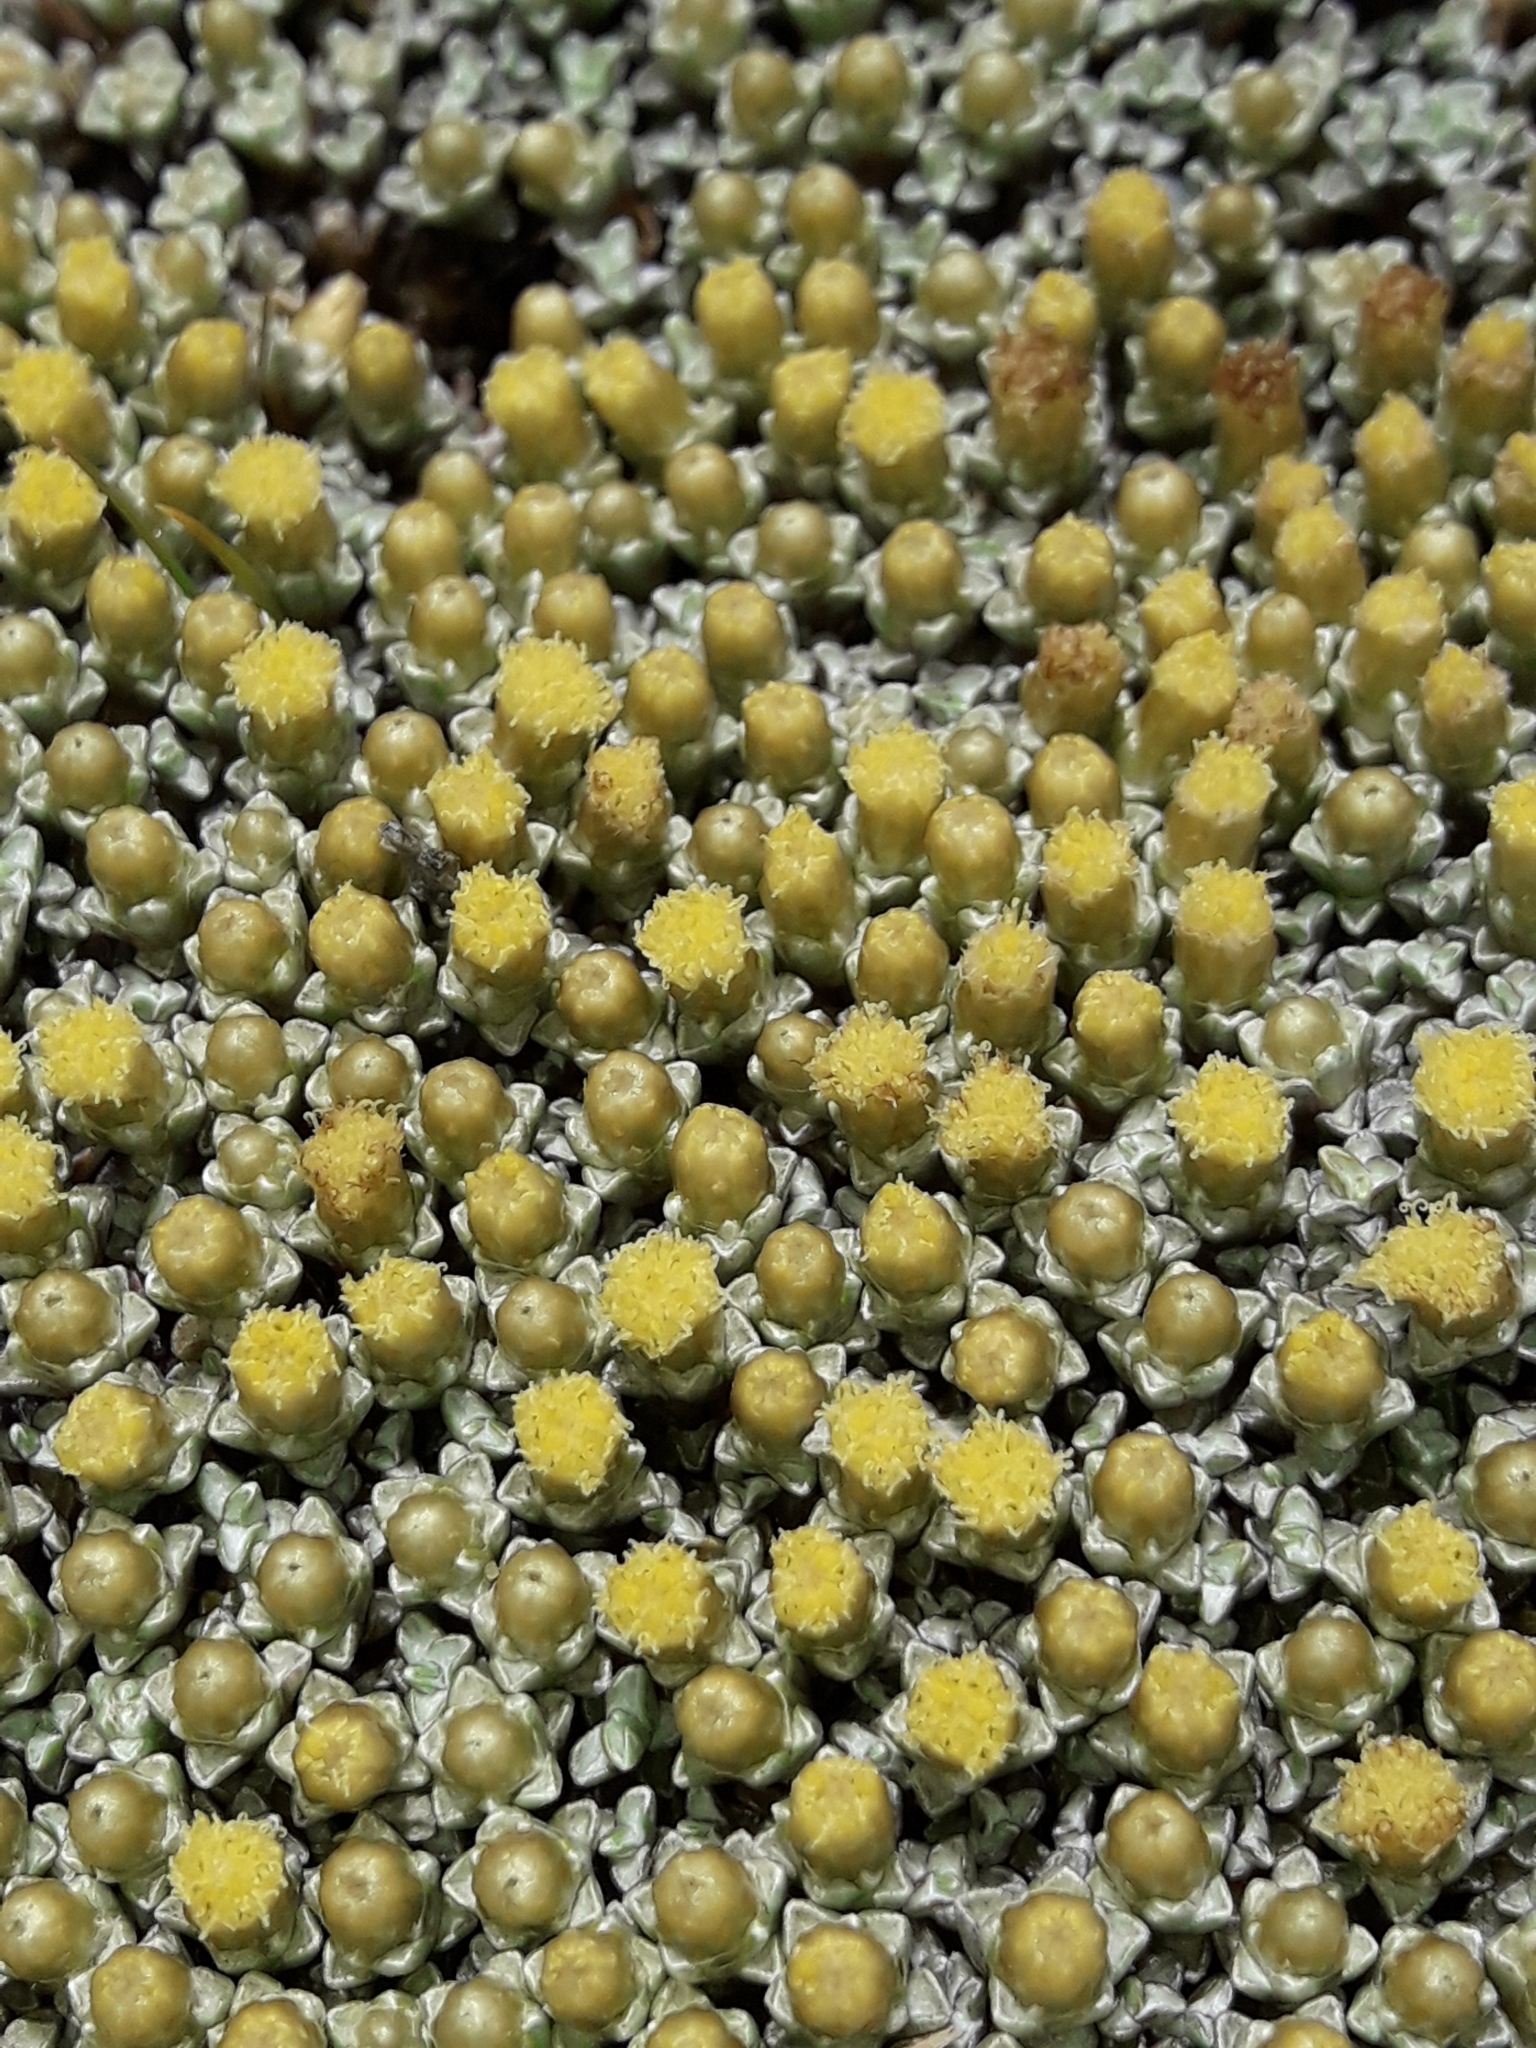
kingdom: Plantae
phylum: Tracheophyta
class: Magnoliopsida
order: Asterales
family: Asteraceae
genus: Raoulia
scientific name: Raoulia hookeri
